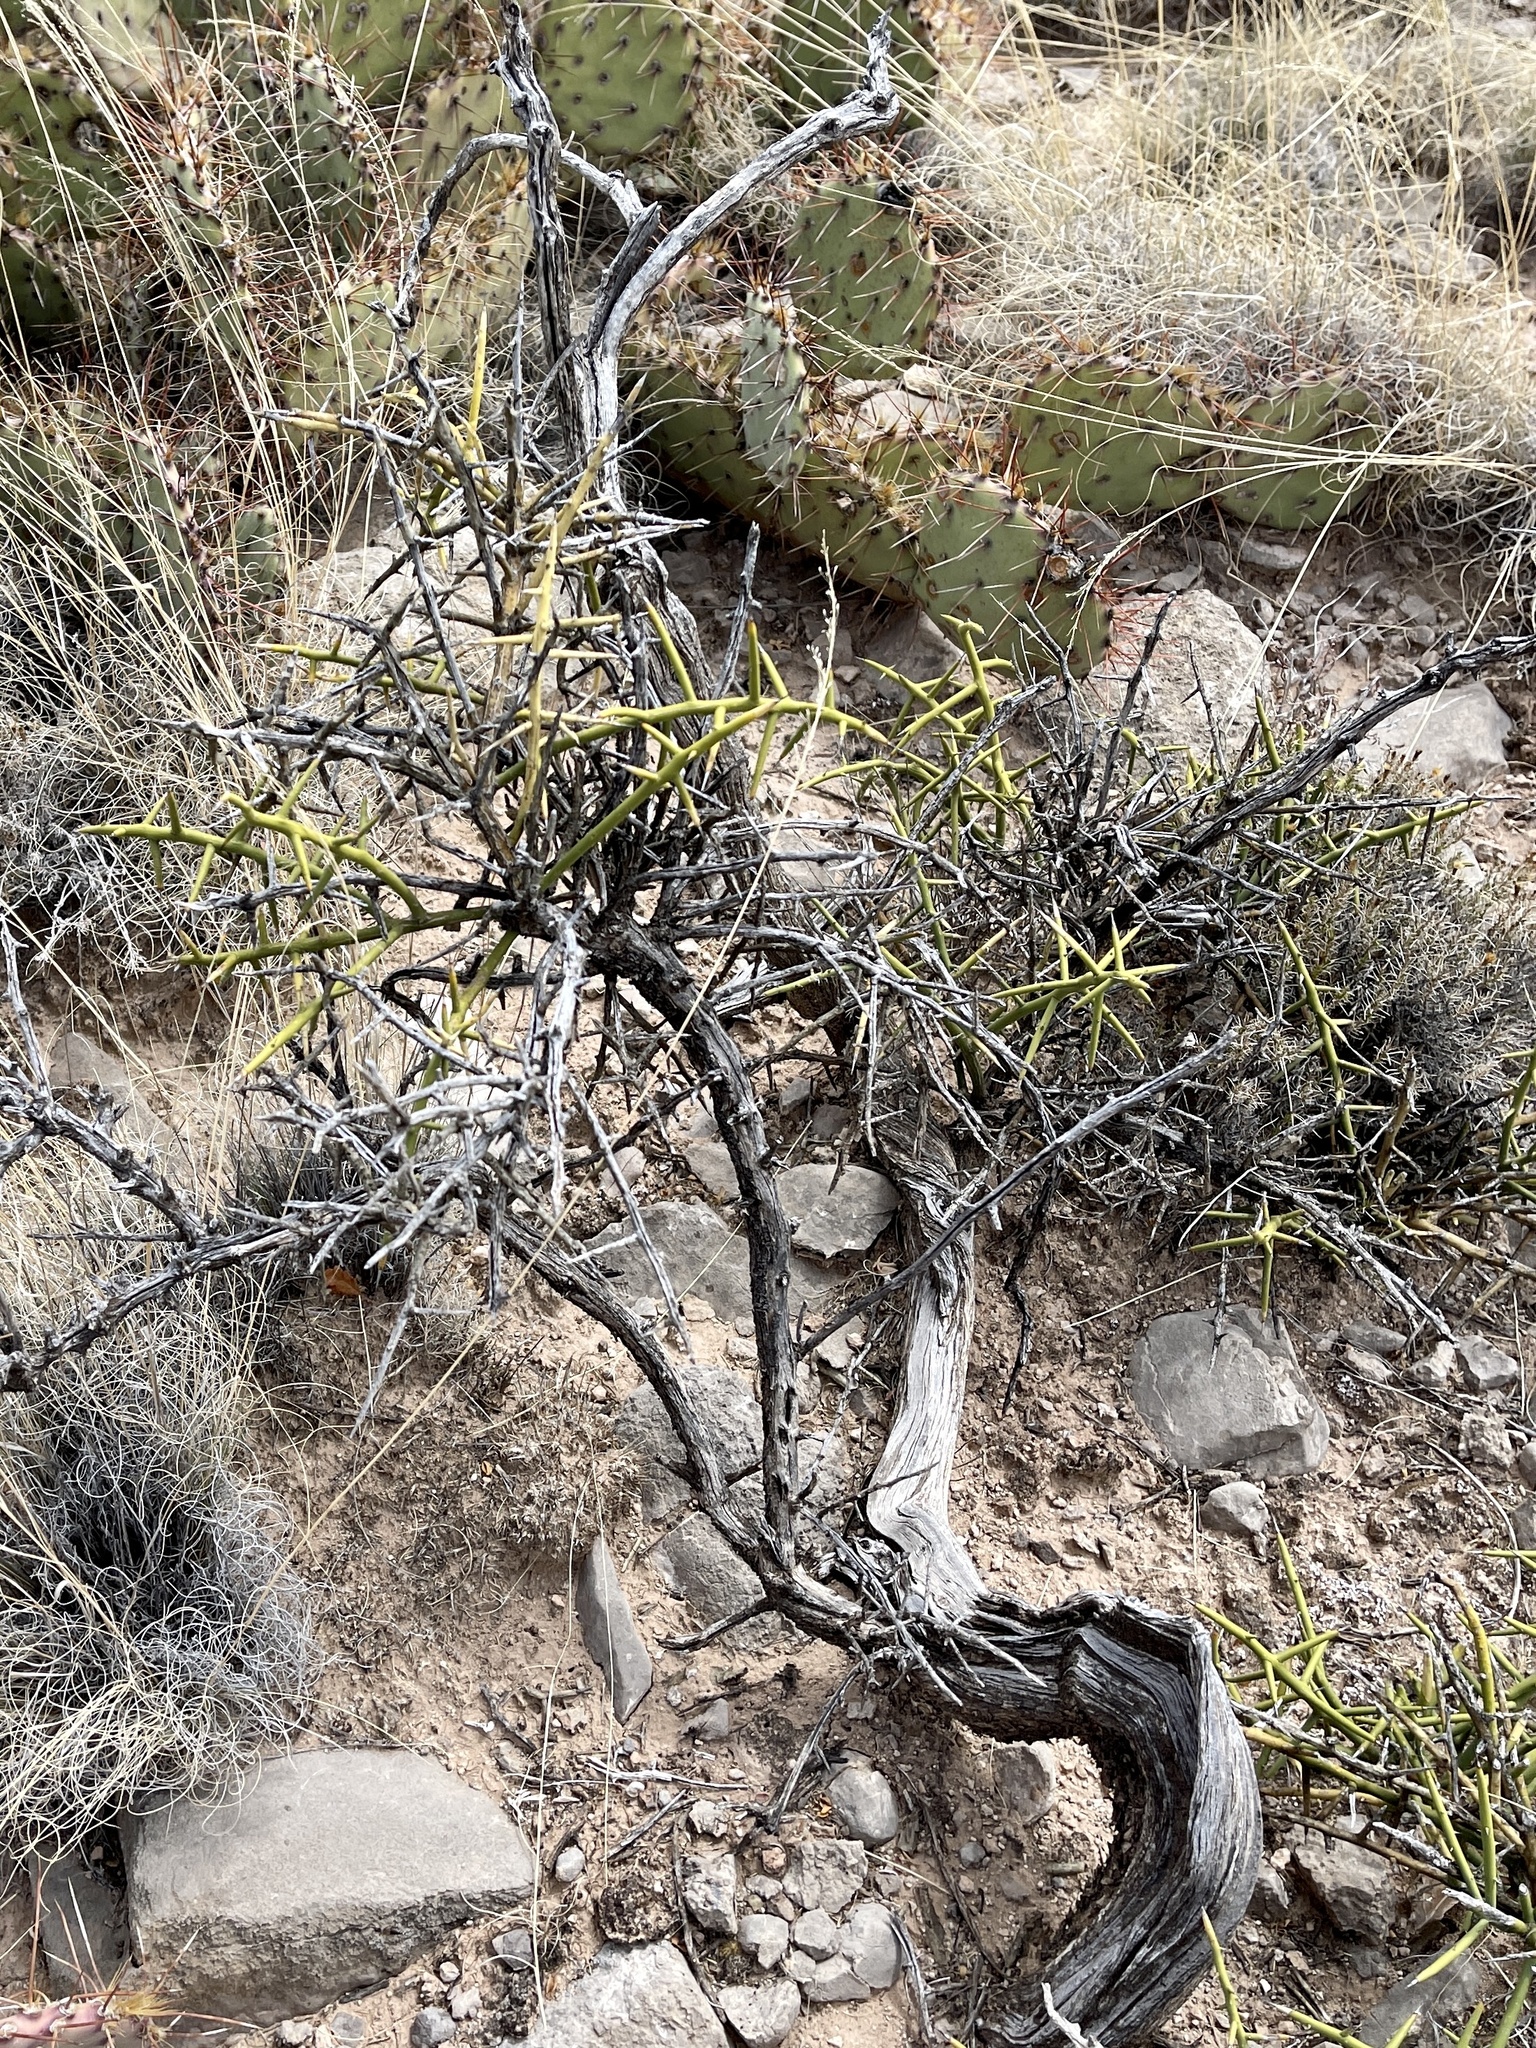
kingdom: Plantae
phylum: Tracheophyta
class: Magnoliopsida
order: Brassicales
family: Koeberliniaceae
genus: Koeberlinia
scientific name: Koeberlinia spinosa
